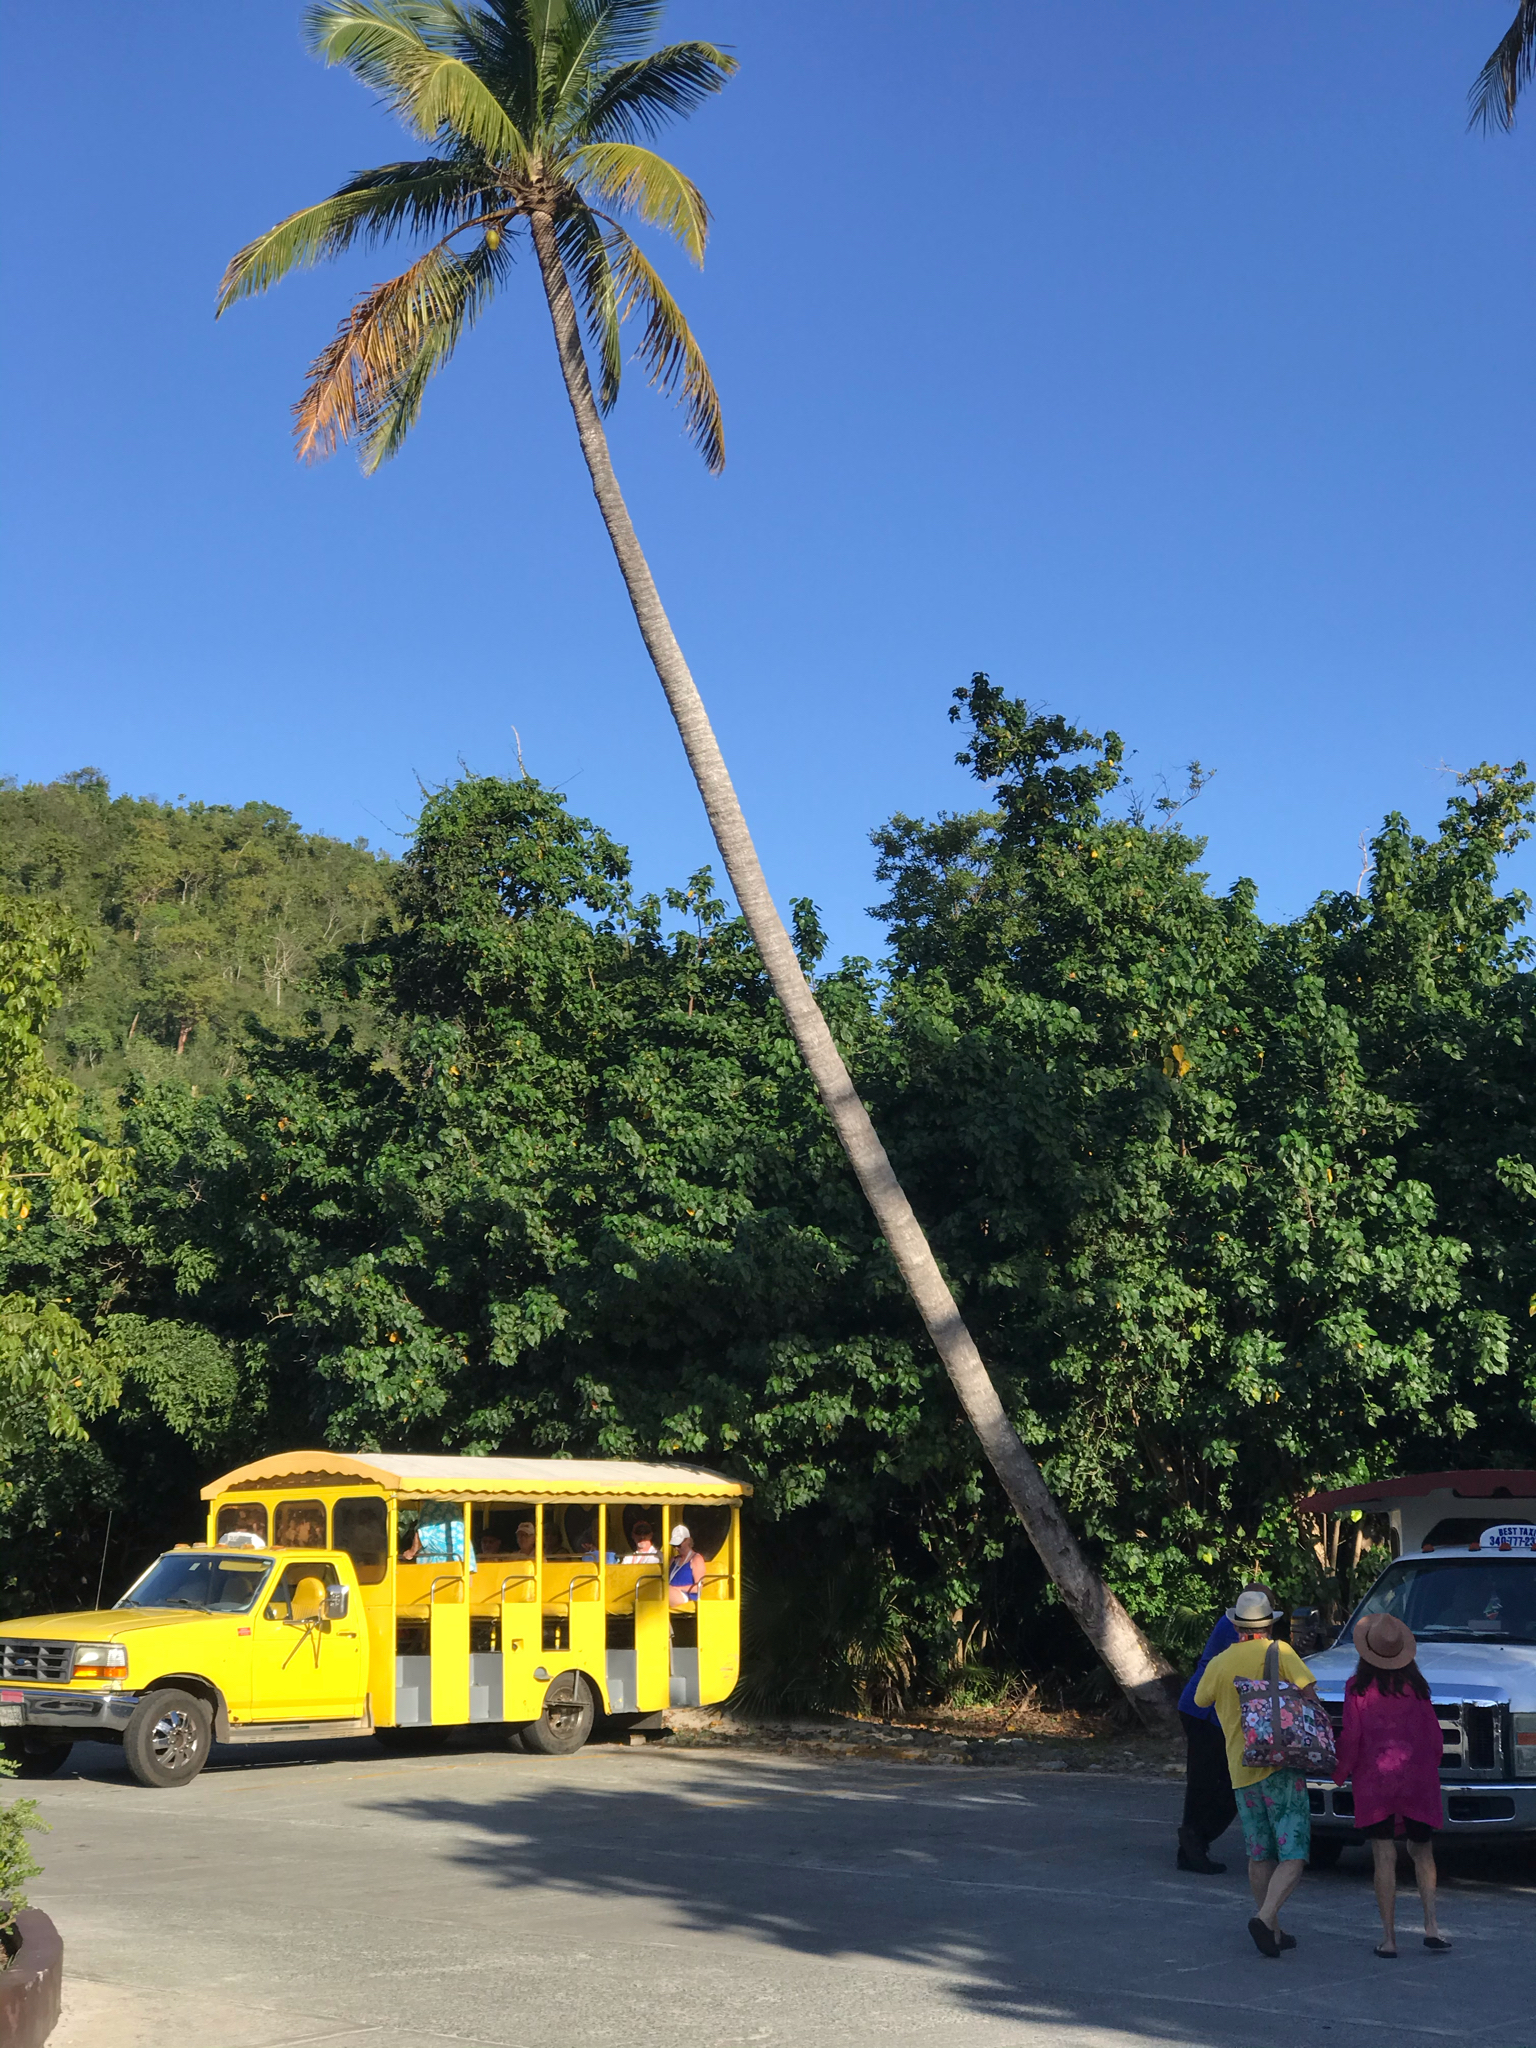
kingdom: Plantae
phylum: Tracheophyta
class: Liliopsida
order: Arecales
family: Arecaceae
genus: Cocos
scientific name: Cocos nucifera
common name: Coconut palm
